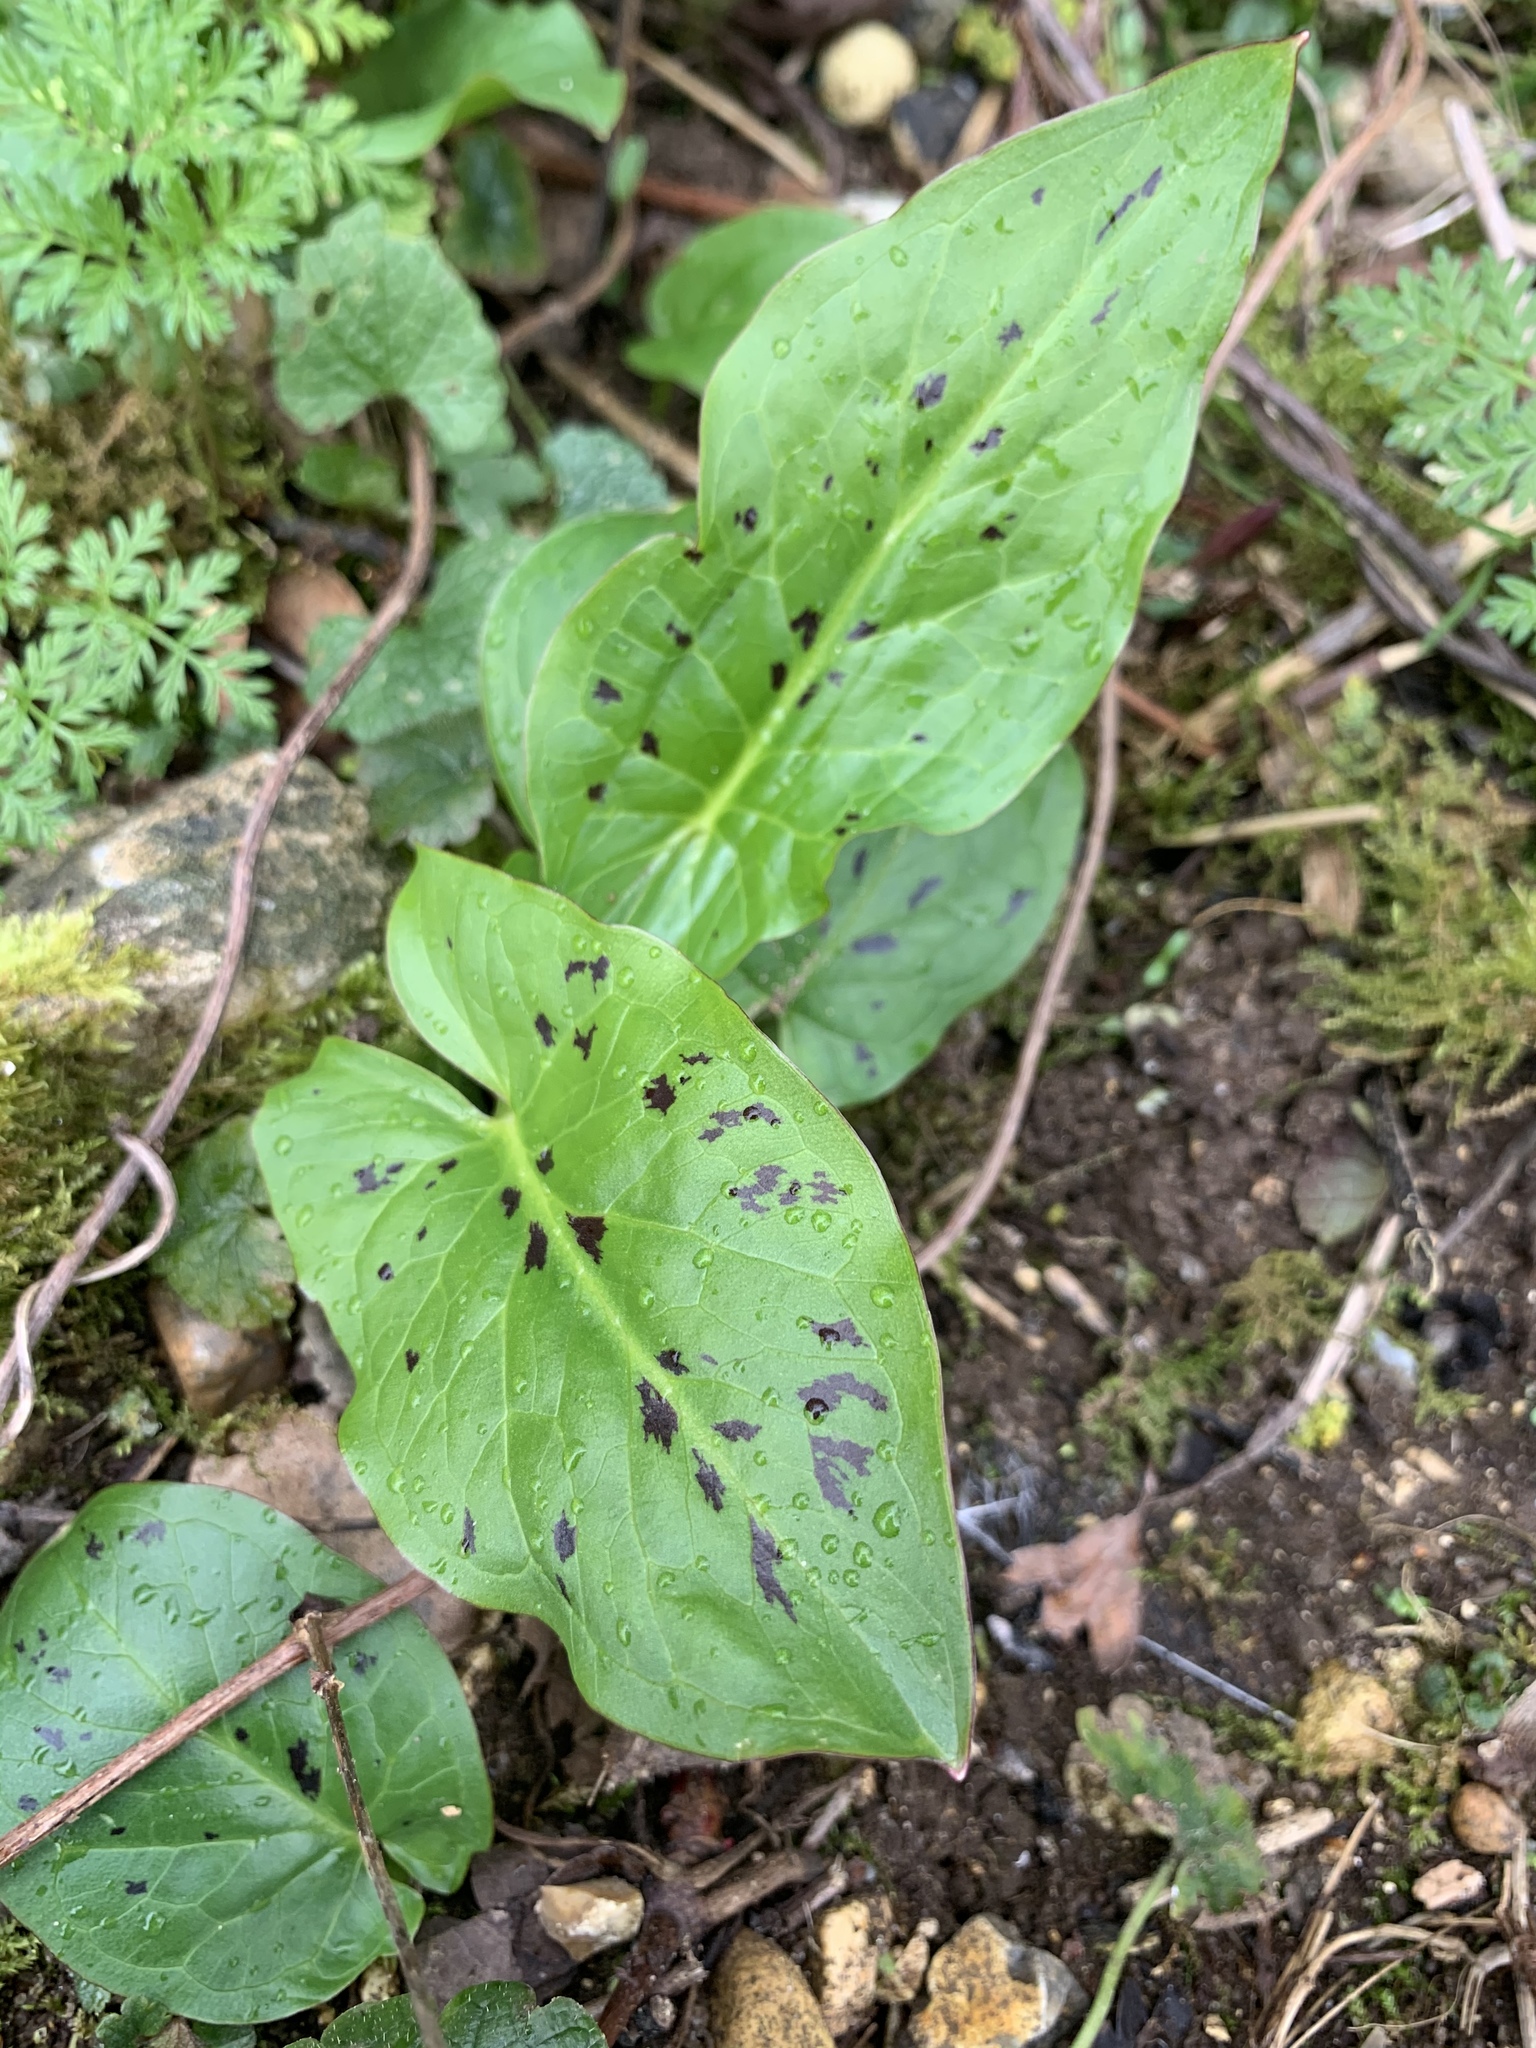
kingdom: Plantae
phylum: Tracheophyta
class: Liliopsida
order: Alismatales
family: Araceae
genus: Arum
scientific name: Arum maculatum
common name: Lords-and-ladies
